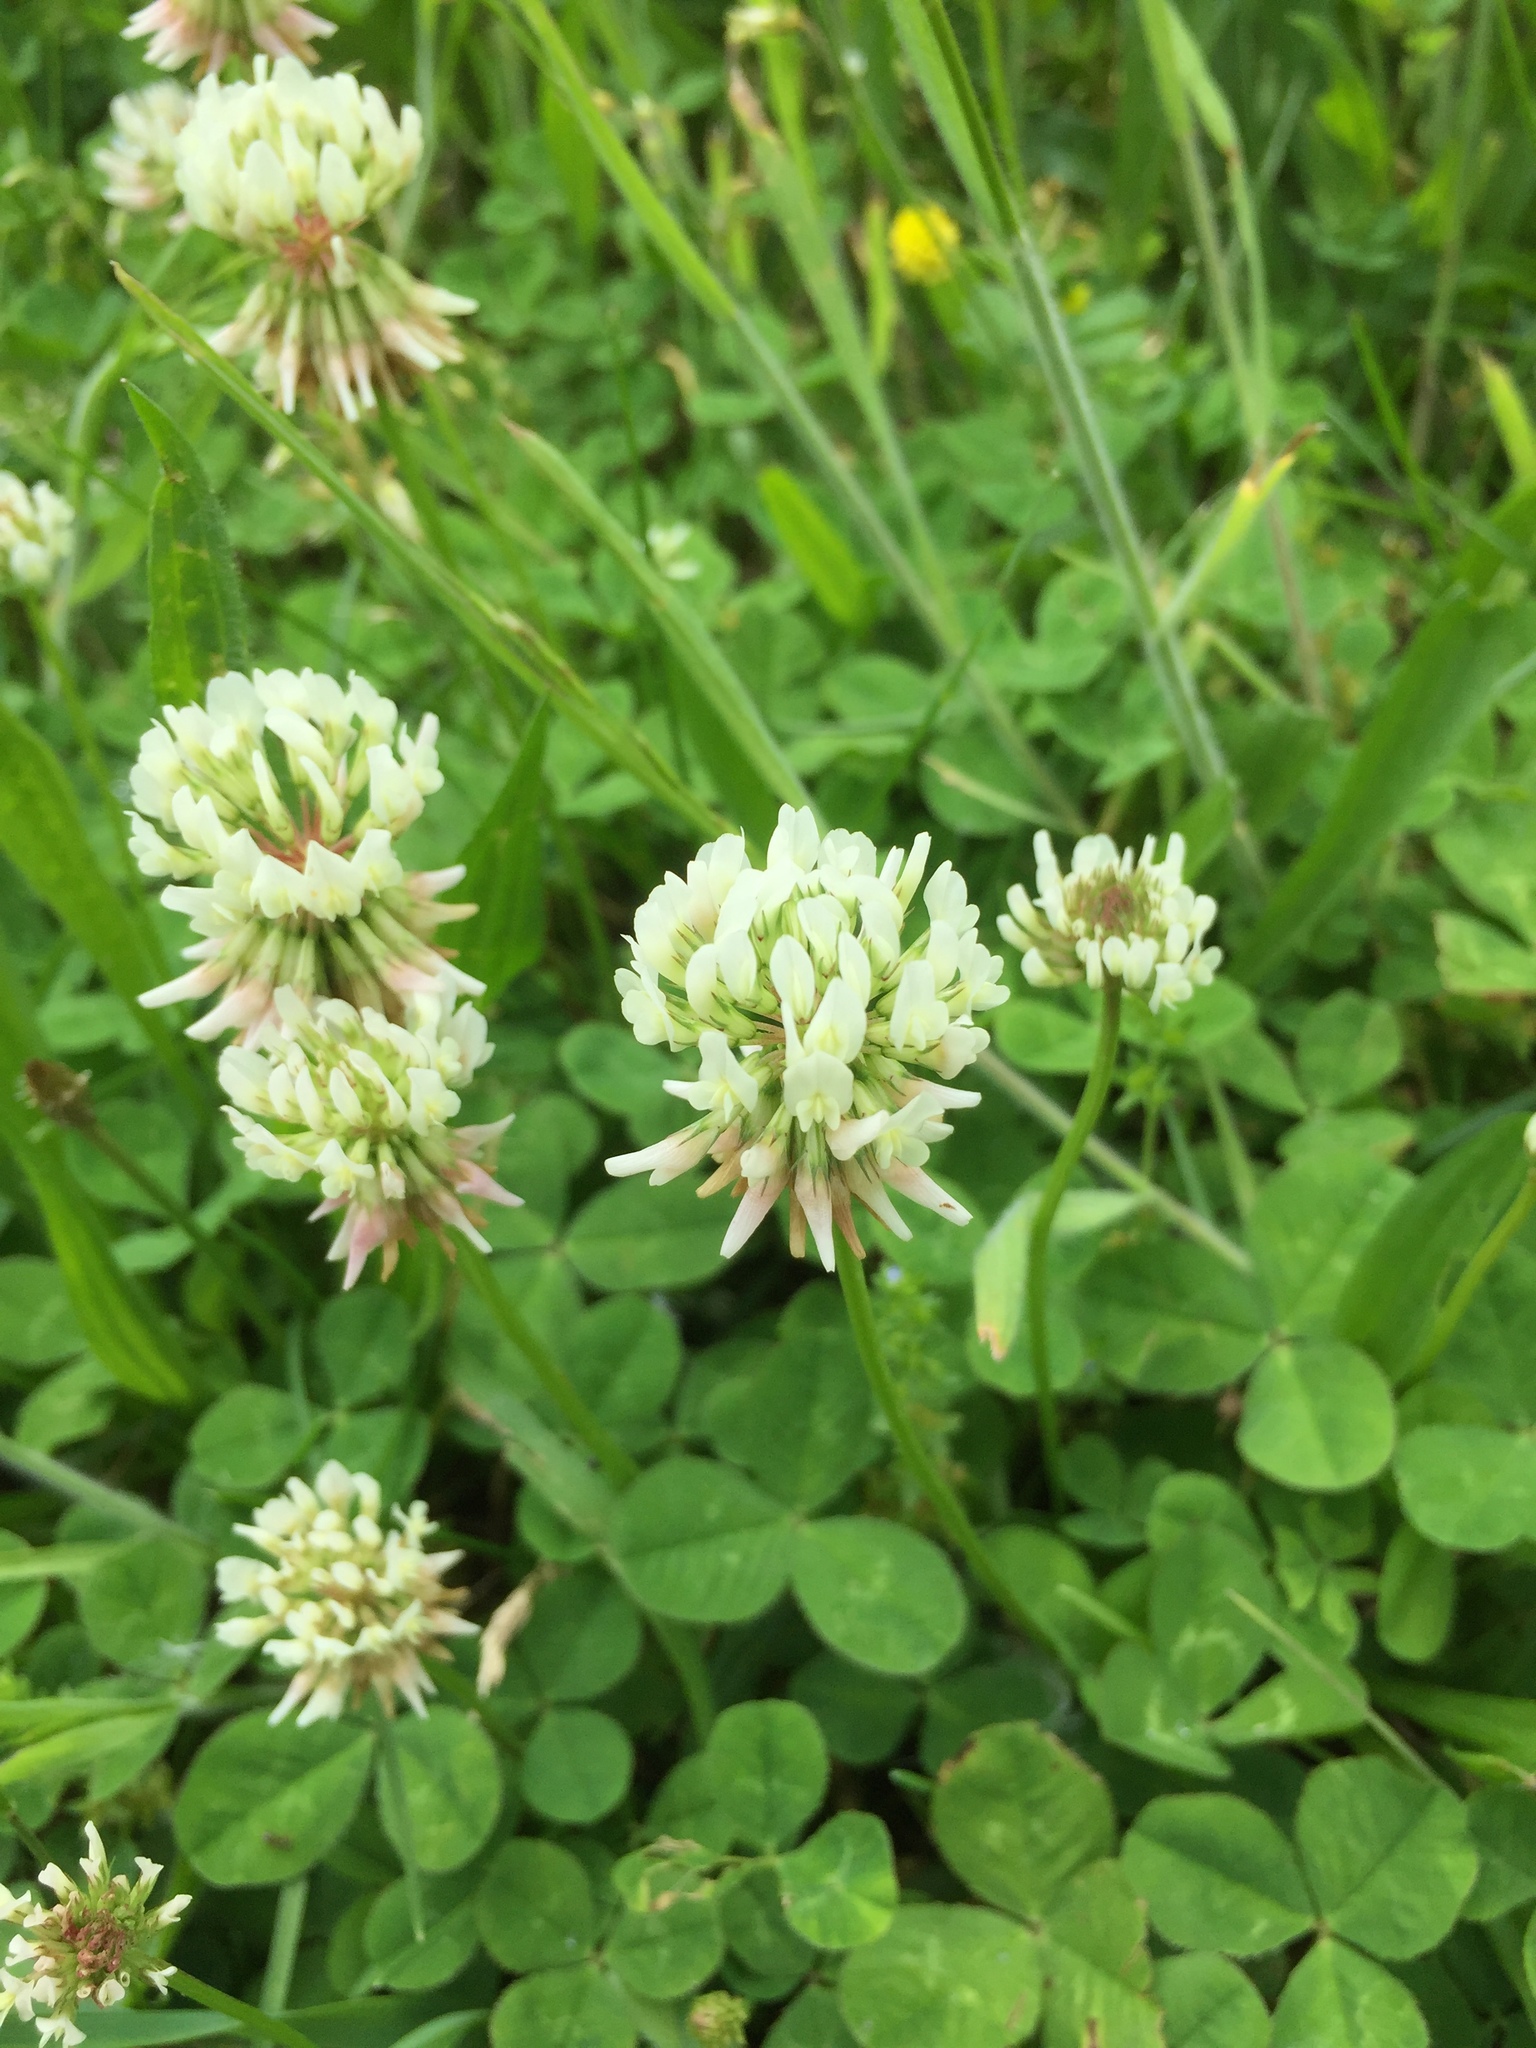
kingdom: Plantae
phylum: Tracheophyta
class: Magnoliopsida
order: Fabales
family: Fabaceae
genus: Trifolium
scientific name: Trifolium repens
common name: White clover
